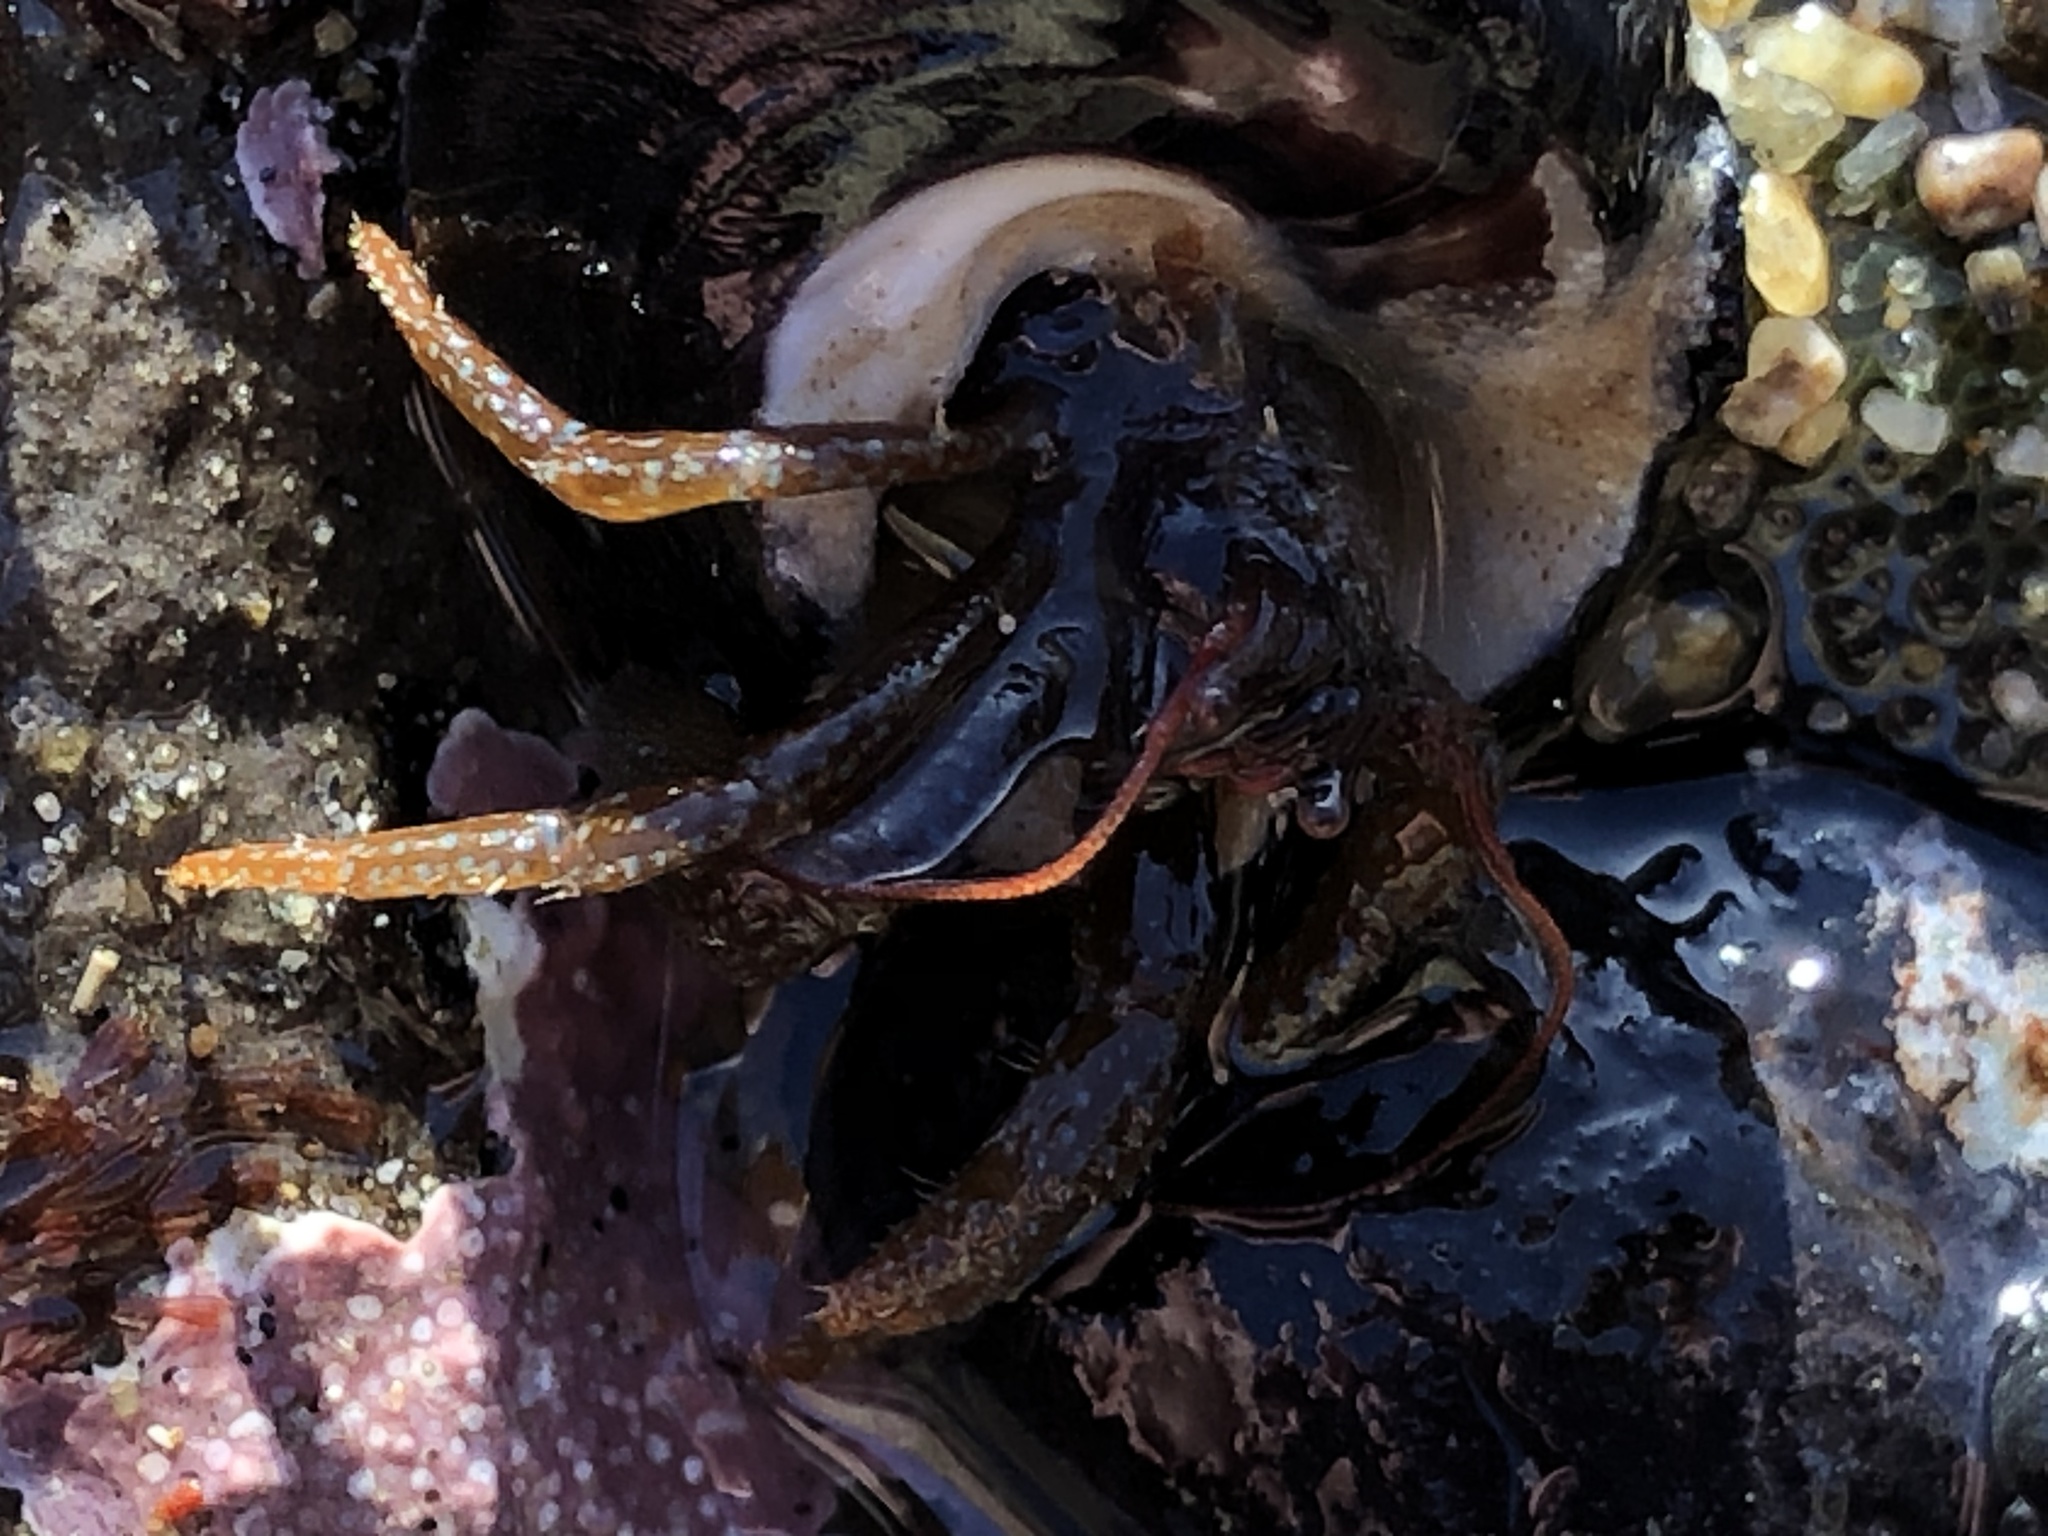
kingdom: Animalia
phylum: Arthropoda
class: Malacostraca
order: Decapoda
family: Paguridae
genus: Pagurus
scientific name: Pagurus granosimanus
